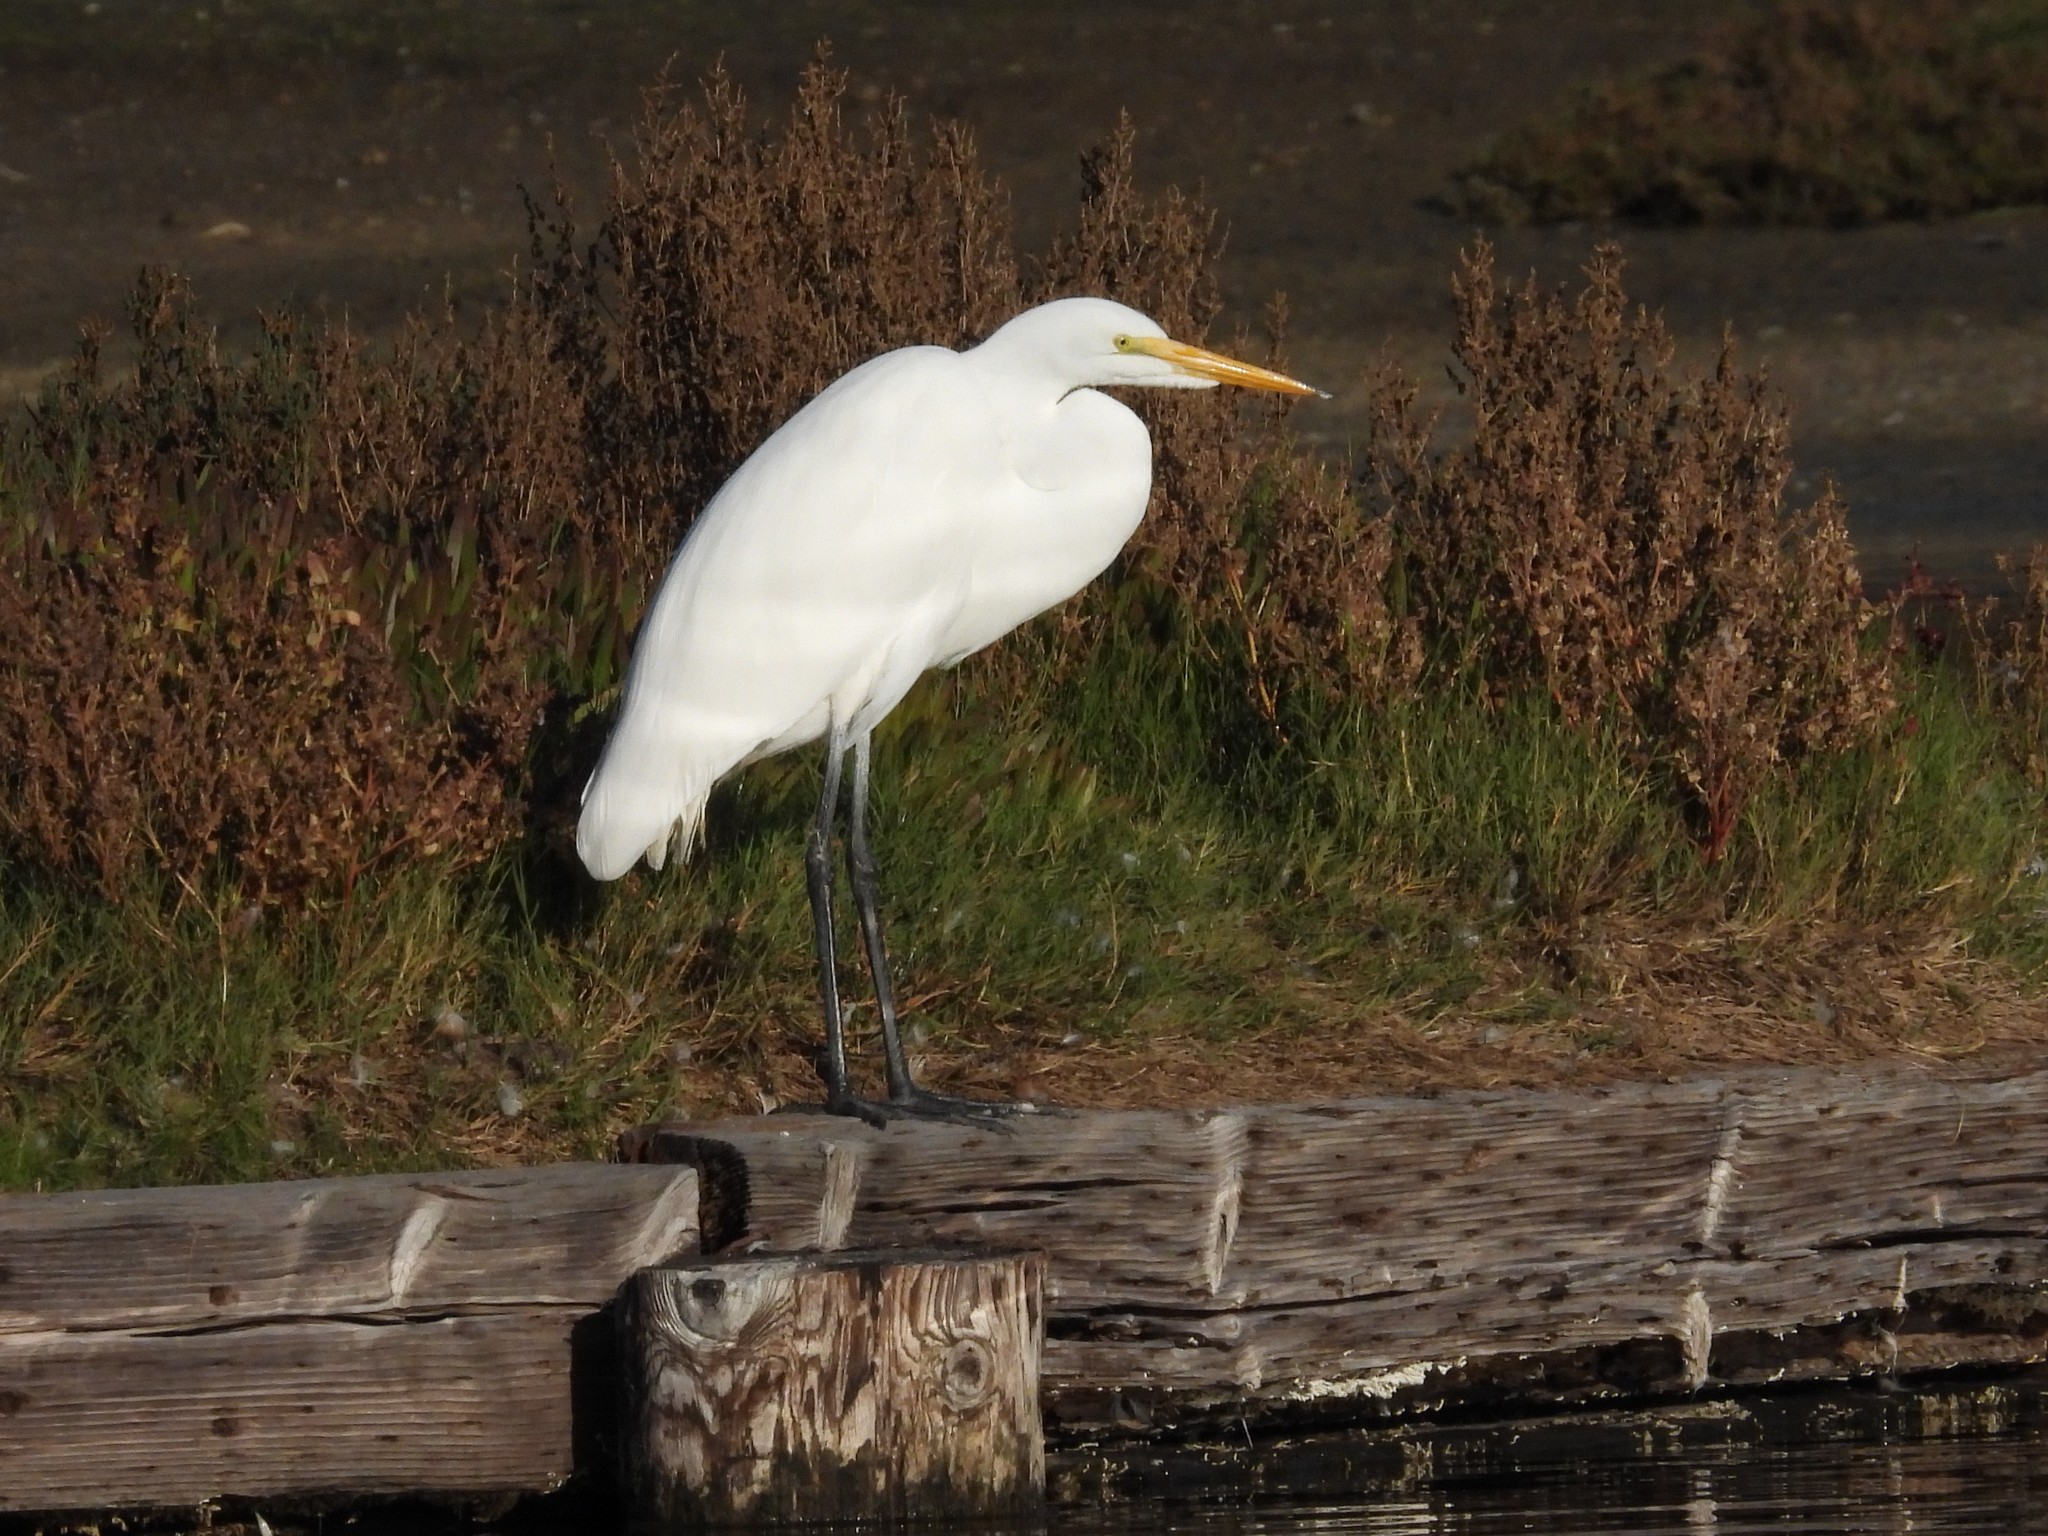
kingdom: Animalia
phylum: Chordata
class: Aves
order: Pelecaniformes
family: Ardeidae
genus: Ardea
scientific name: Ardea alba
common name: Great egret
